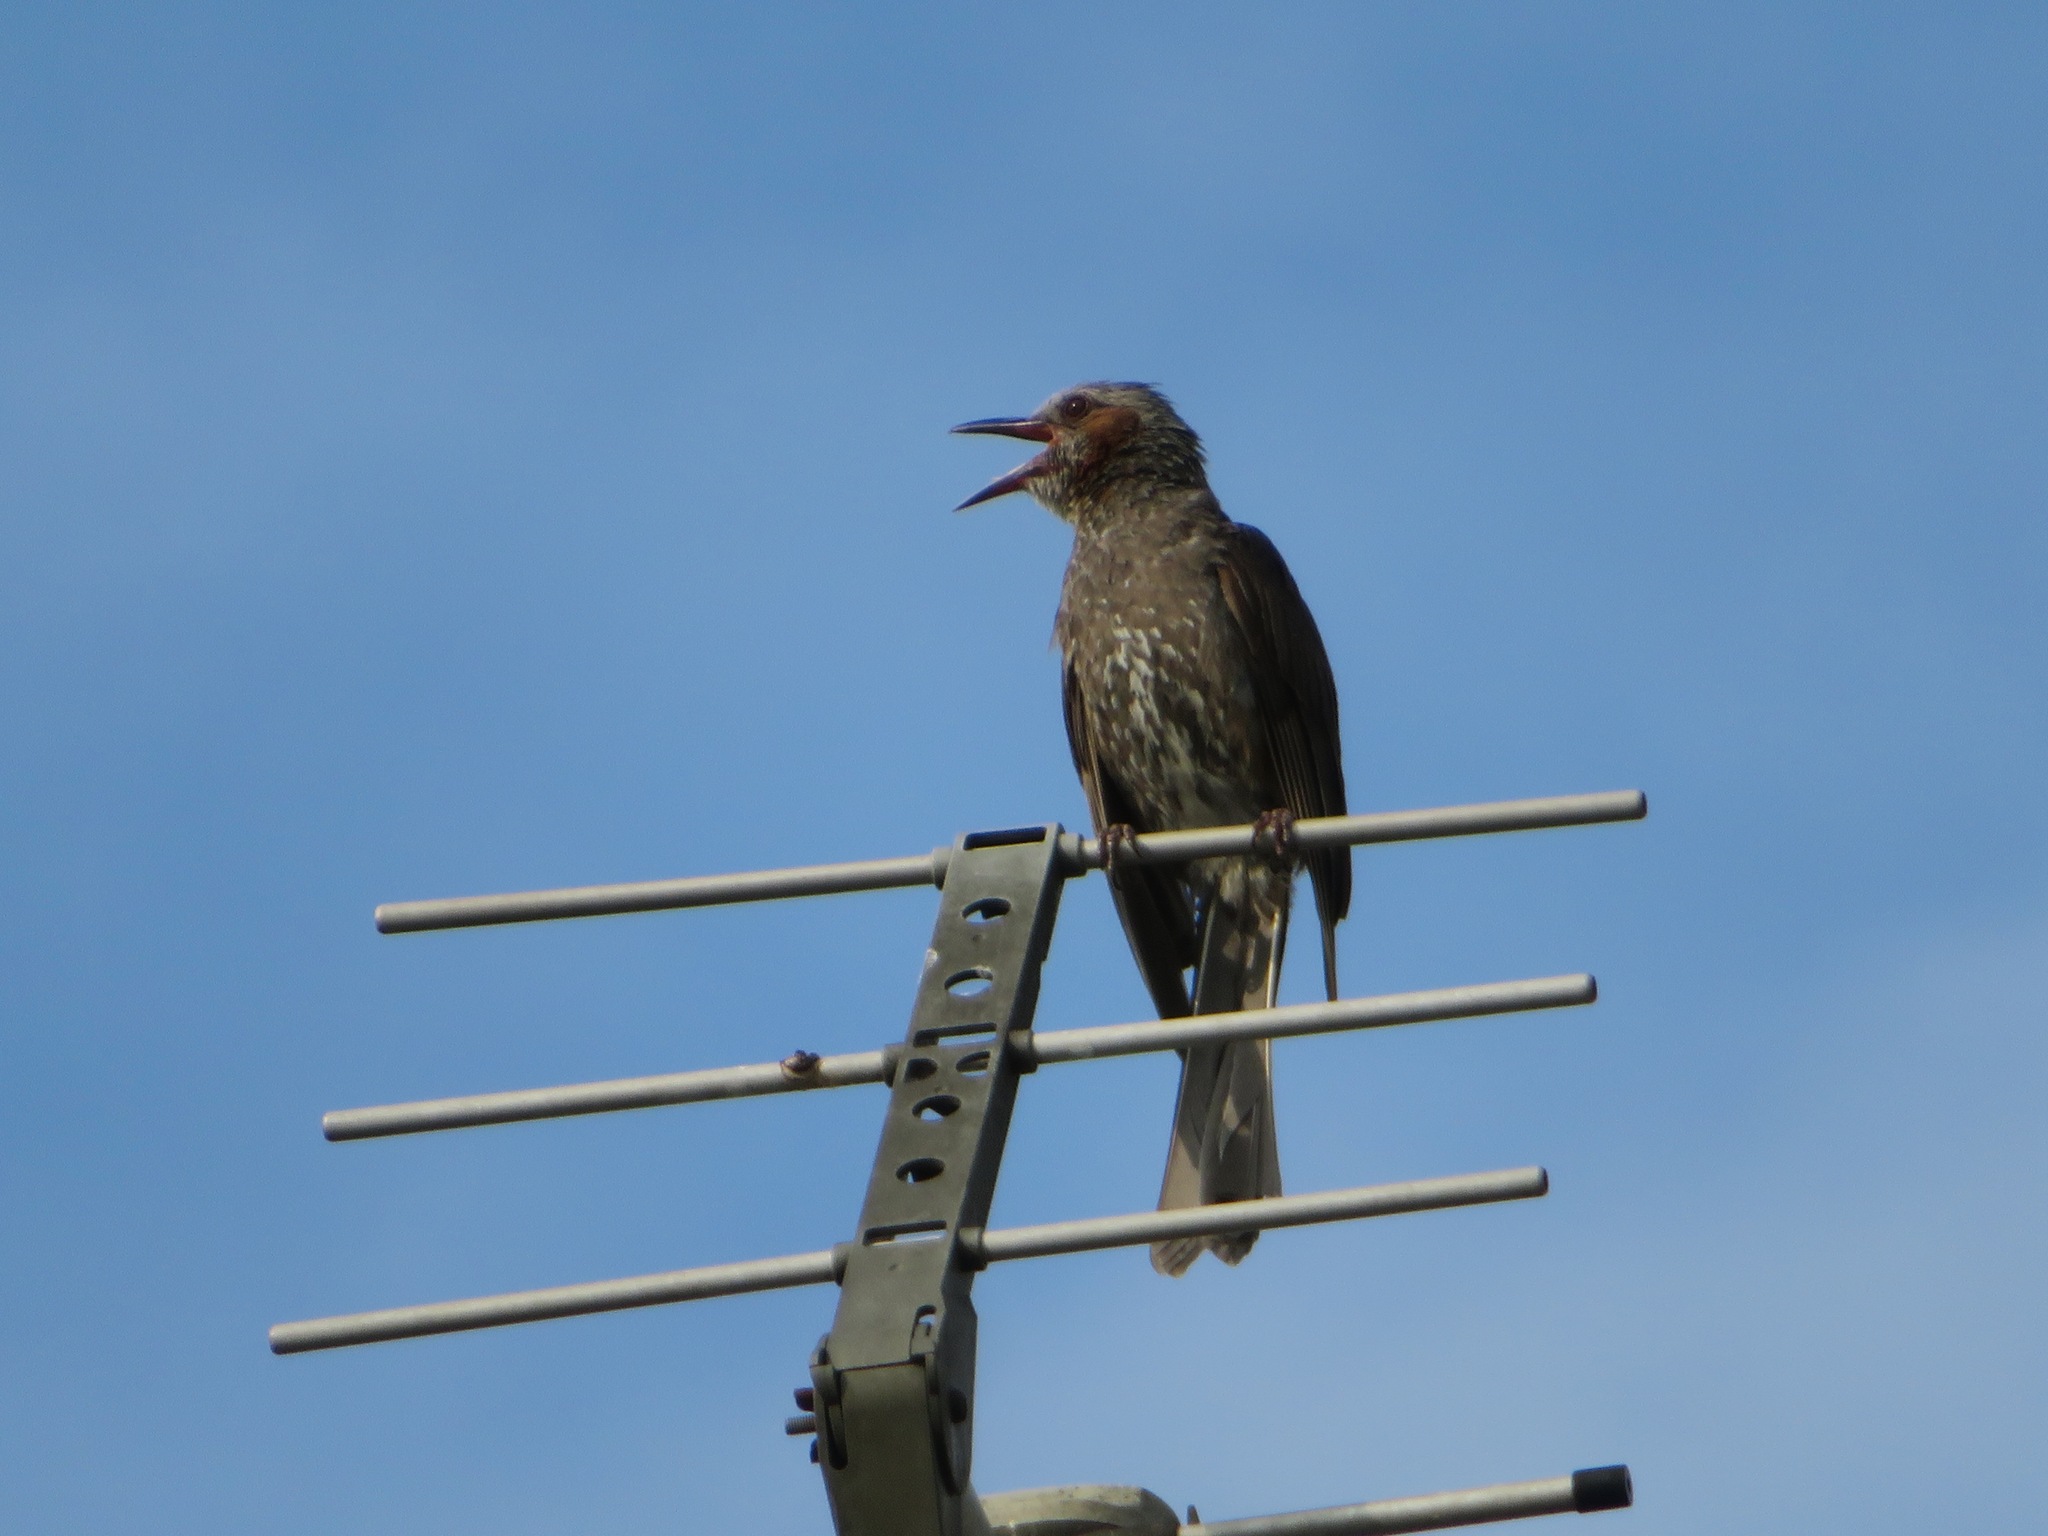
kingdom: Animalia
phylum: Chordata
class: Aves
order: Passeriformes
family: Pycnonotidae
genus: Hypsipetes
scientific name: Hypsipetes amaurotis
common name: Brown-eared bulbul
